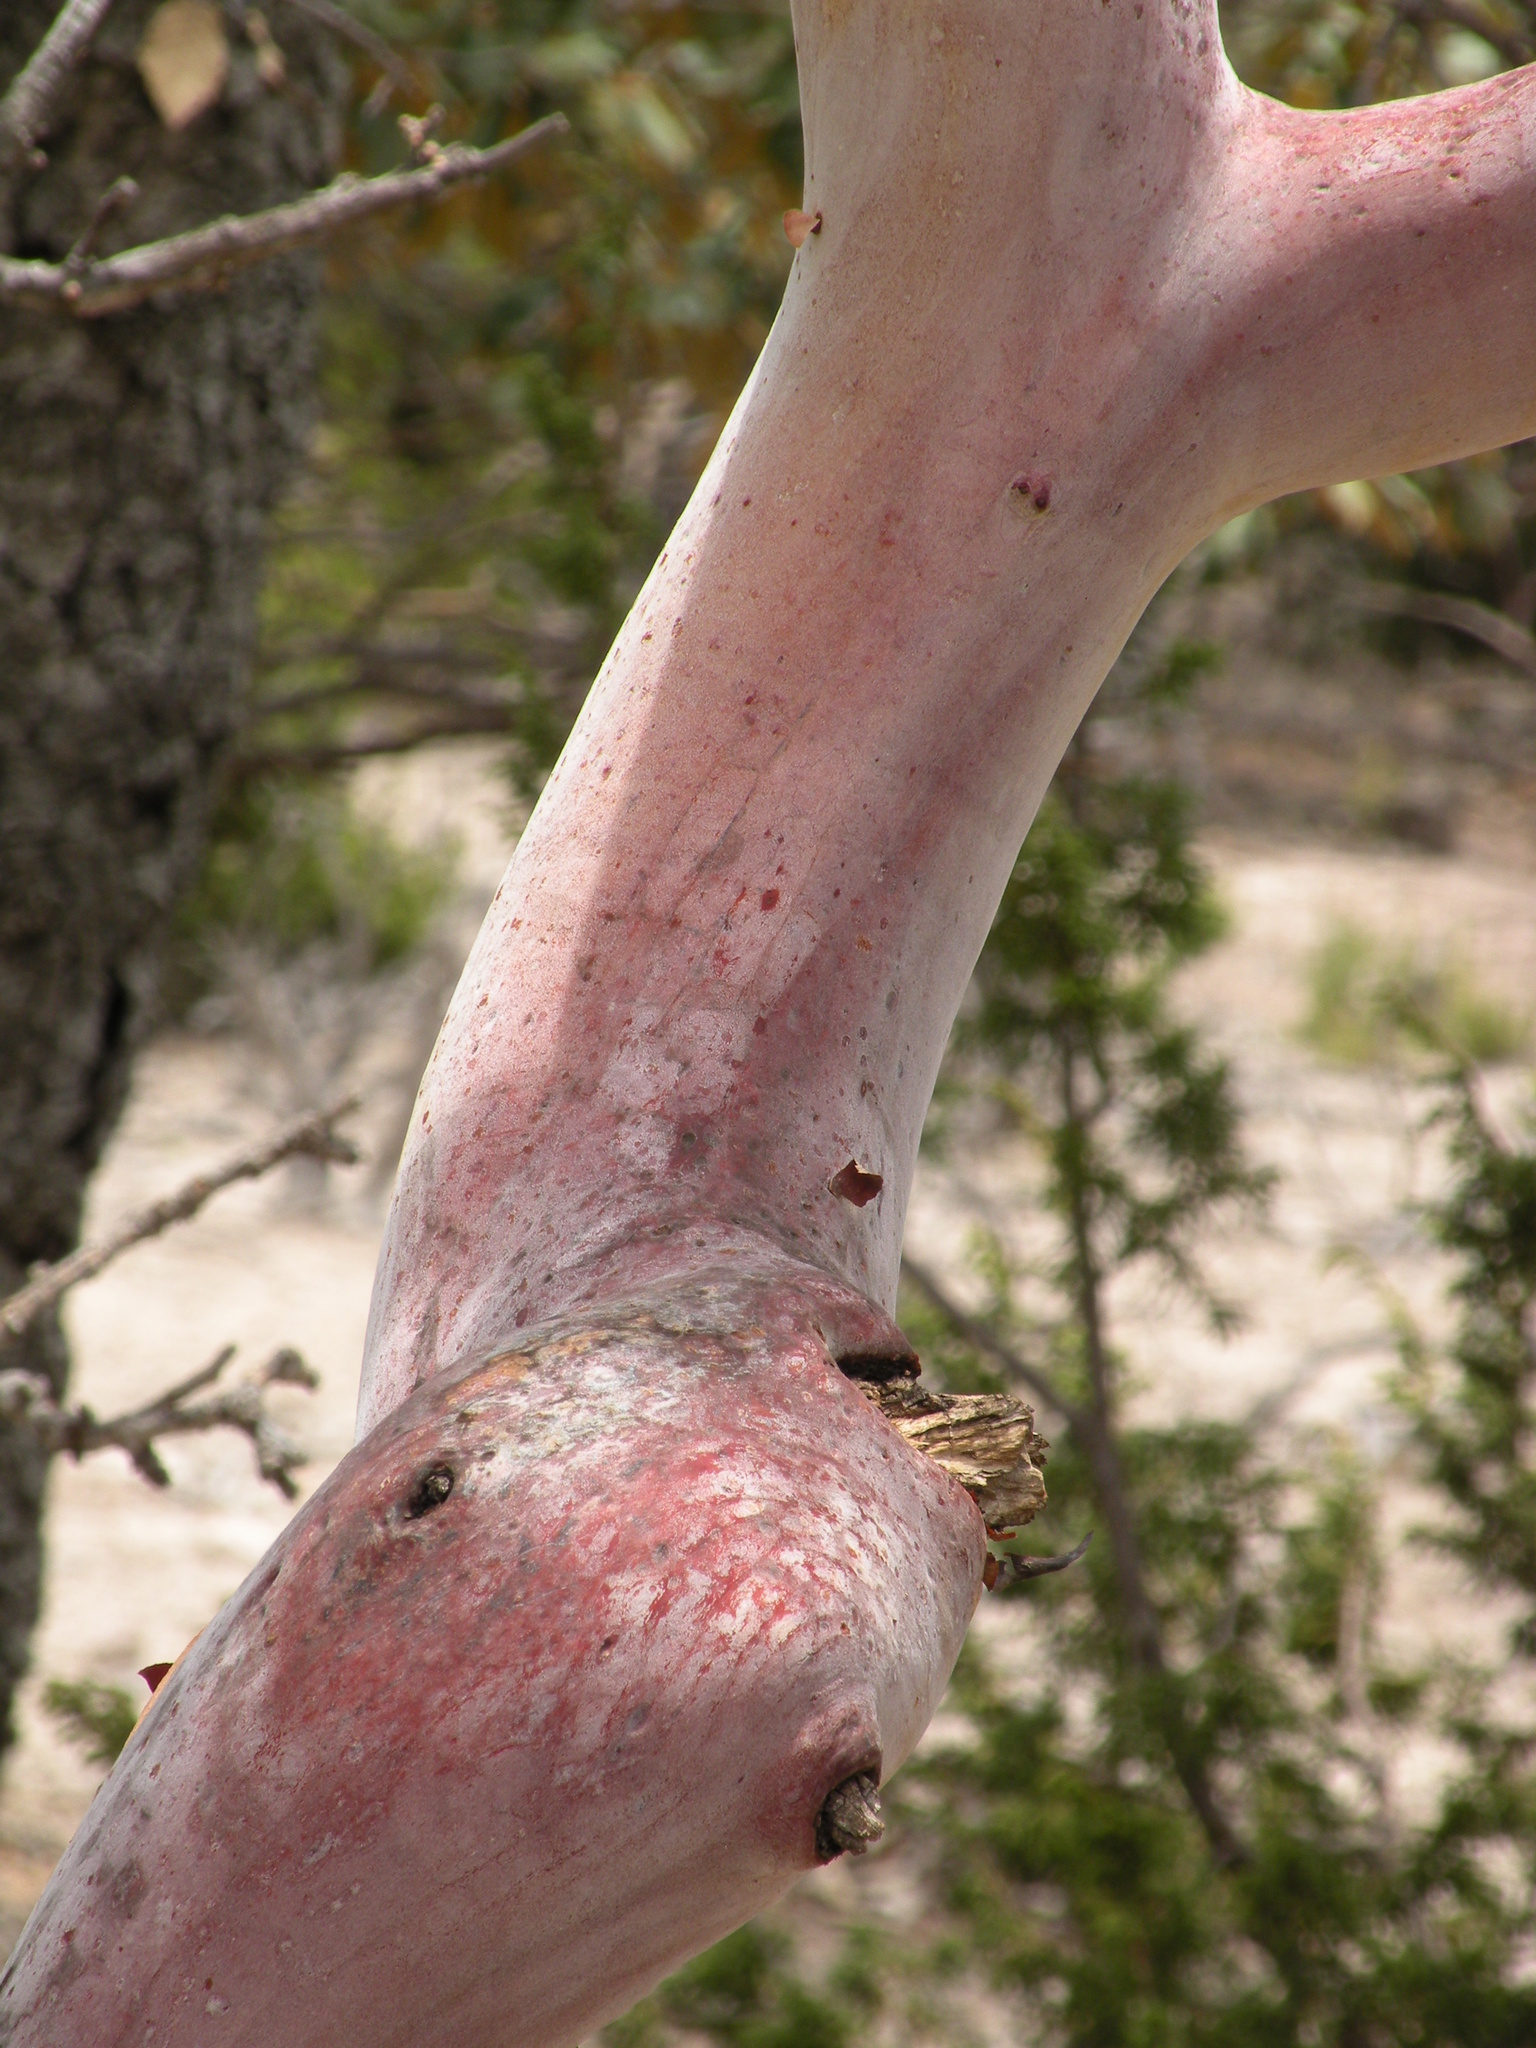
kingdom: Plantae
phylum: Tracheophyta
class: Magnoliopsida
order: Ericales
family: Ericaceae
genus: Arbutus
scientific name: Arbutus bicolor
